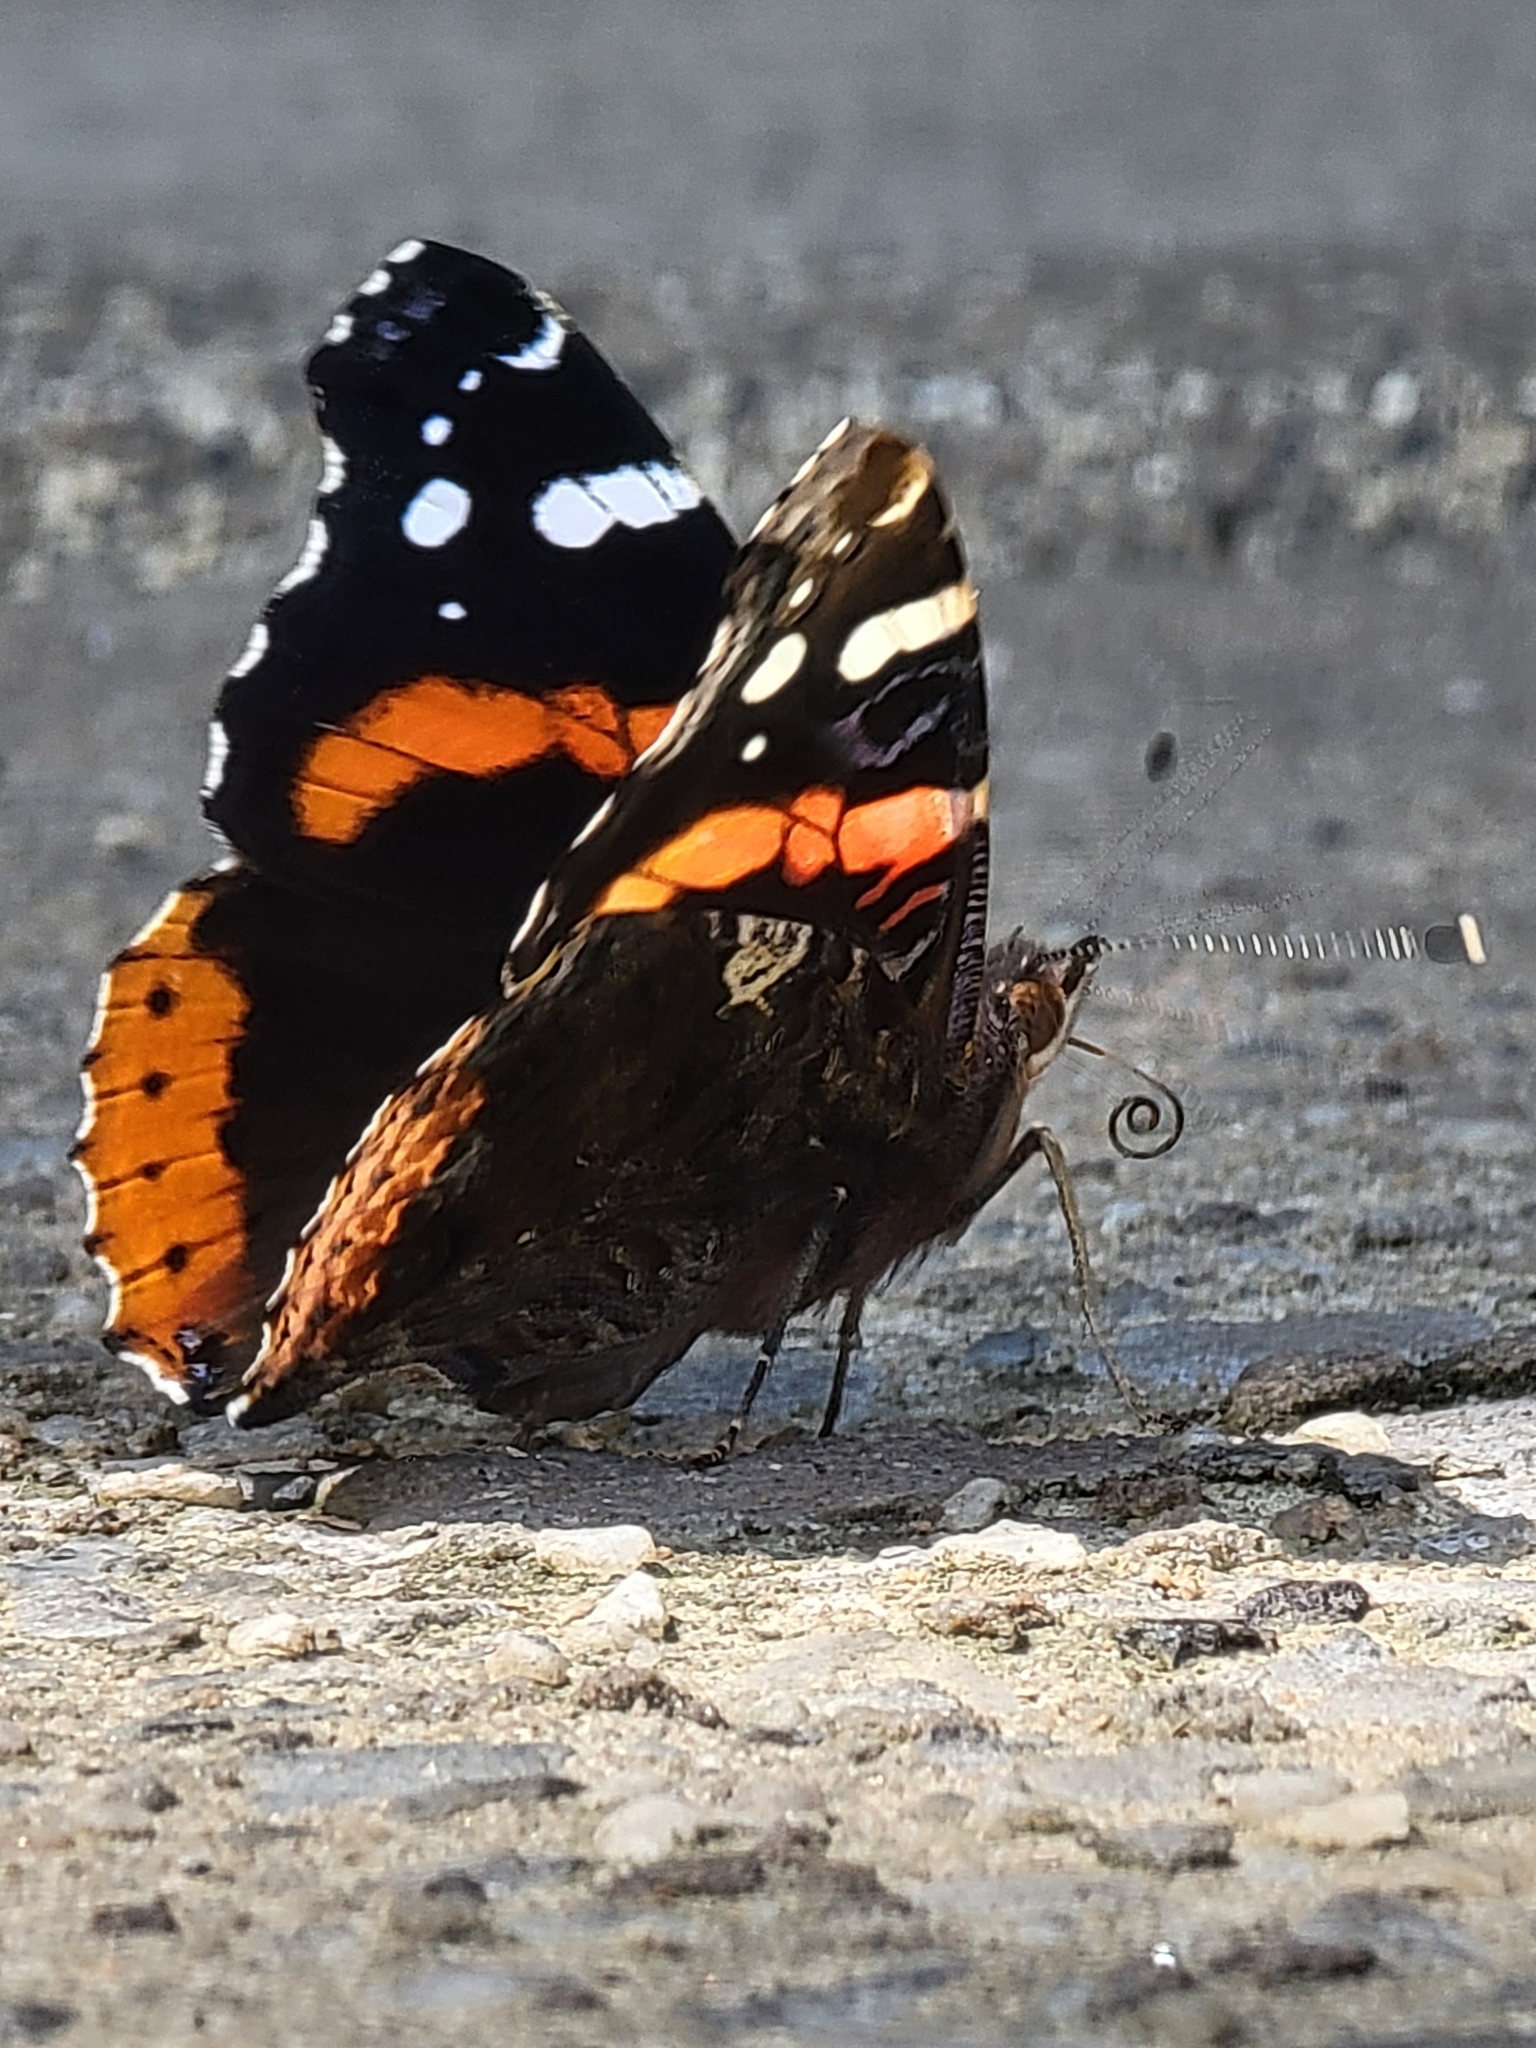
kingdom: Animalia
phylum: Arthropoda
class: Insecta
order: Lepidoptera
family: Nymphalidae
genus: Vanessa
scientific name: Vanessa atalanta
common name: Red admiral
